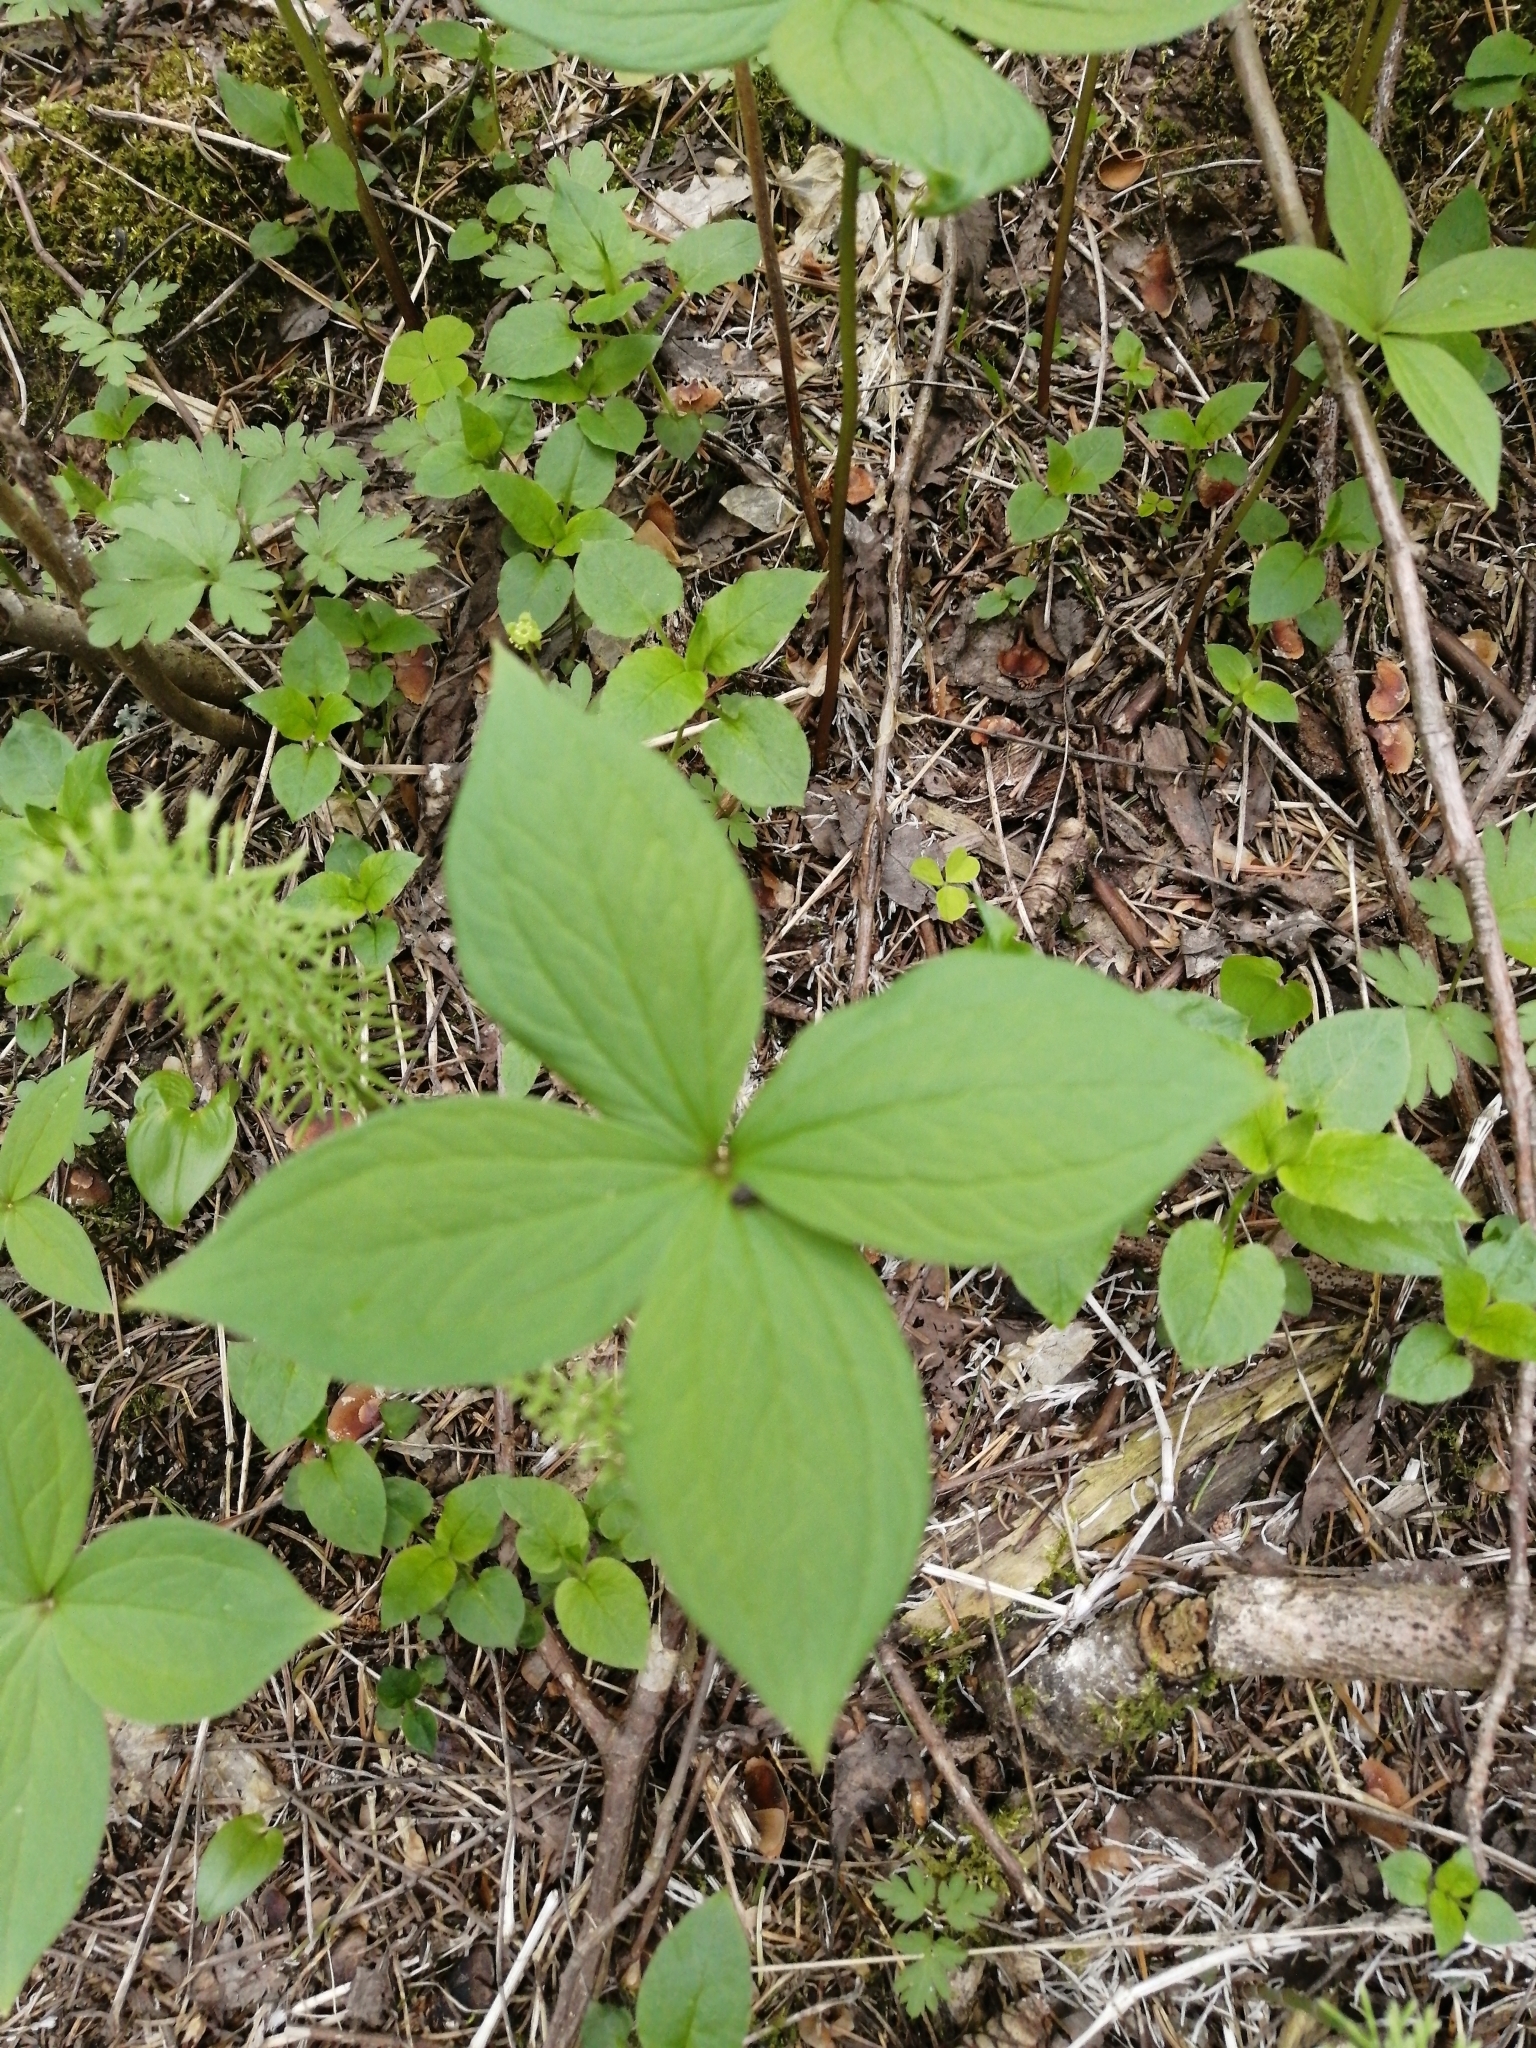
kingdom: Plantae
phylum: Tracheophyta
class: Liliopsida
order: Liliales
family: Melanthiaceae
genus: Paris
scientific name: Paris quadrifolia
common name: Herb-paris
